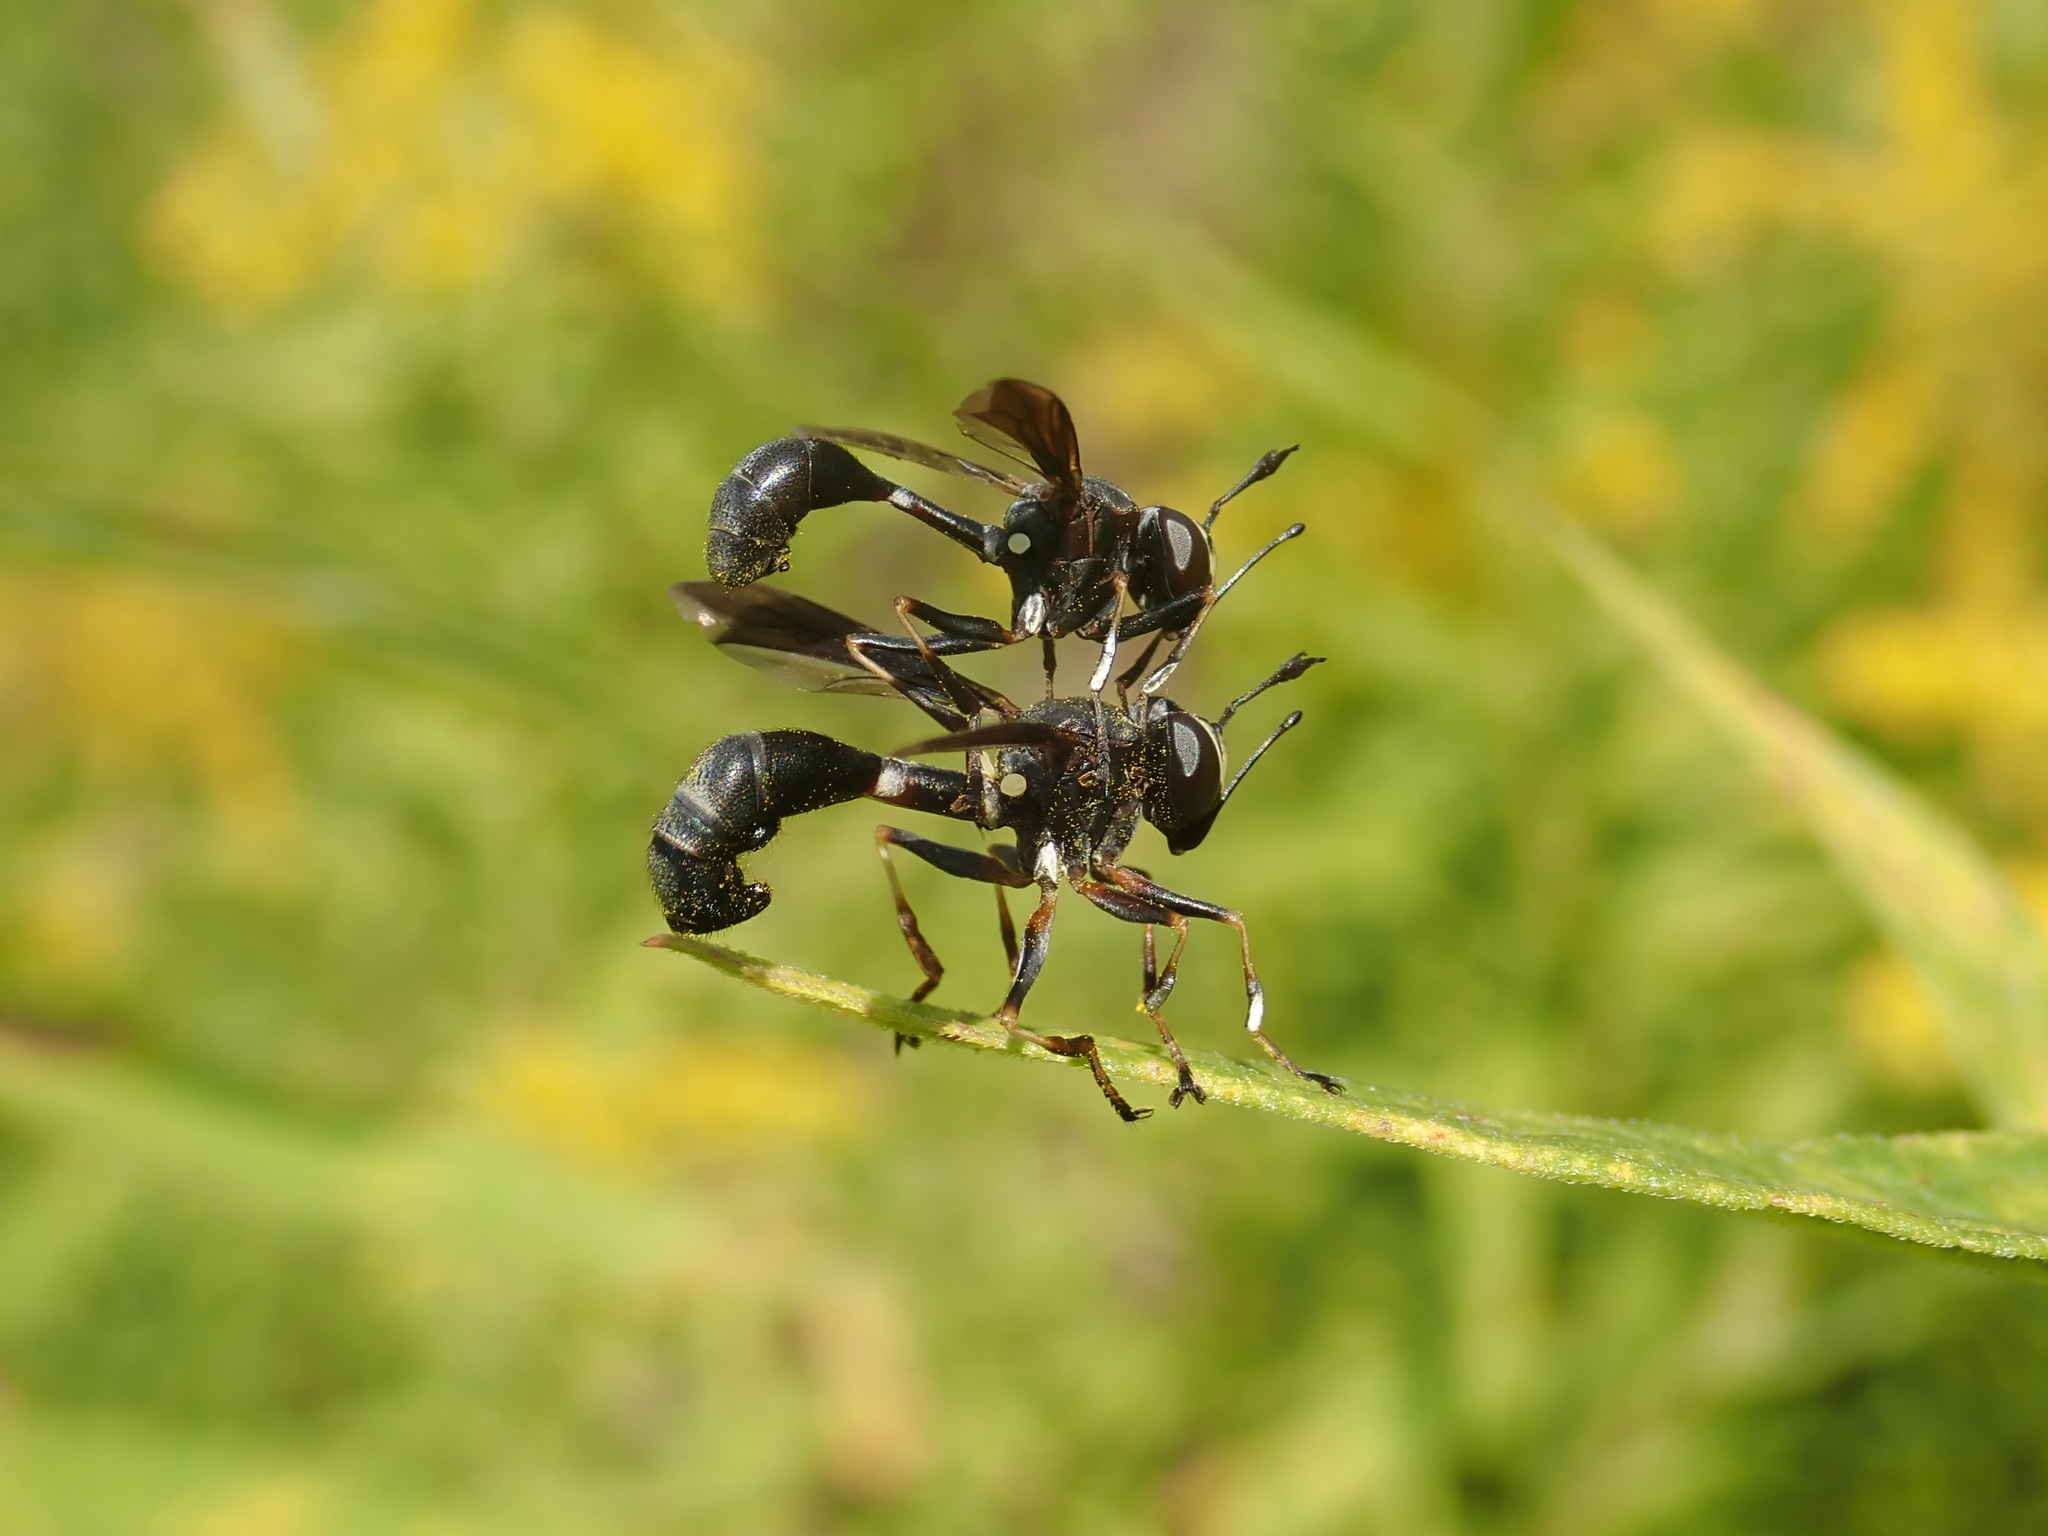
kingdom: Animalia
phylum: Arthropoda
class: Insecta
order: Diptera
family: Conopidae
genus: Physocephala
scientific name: Physocephala tibialis
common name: Common eastern physocephala
